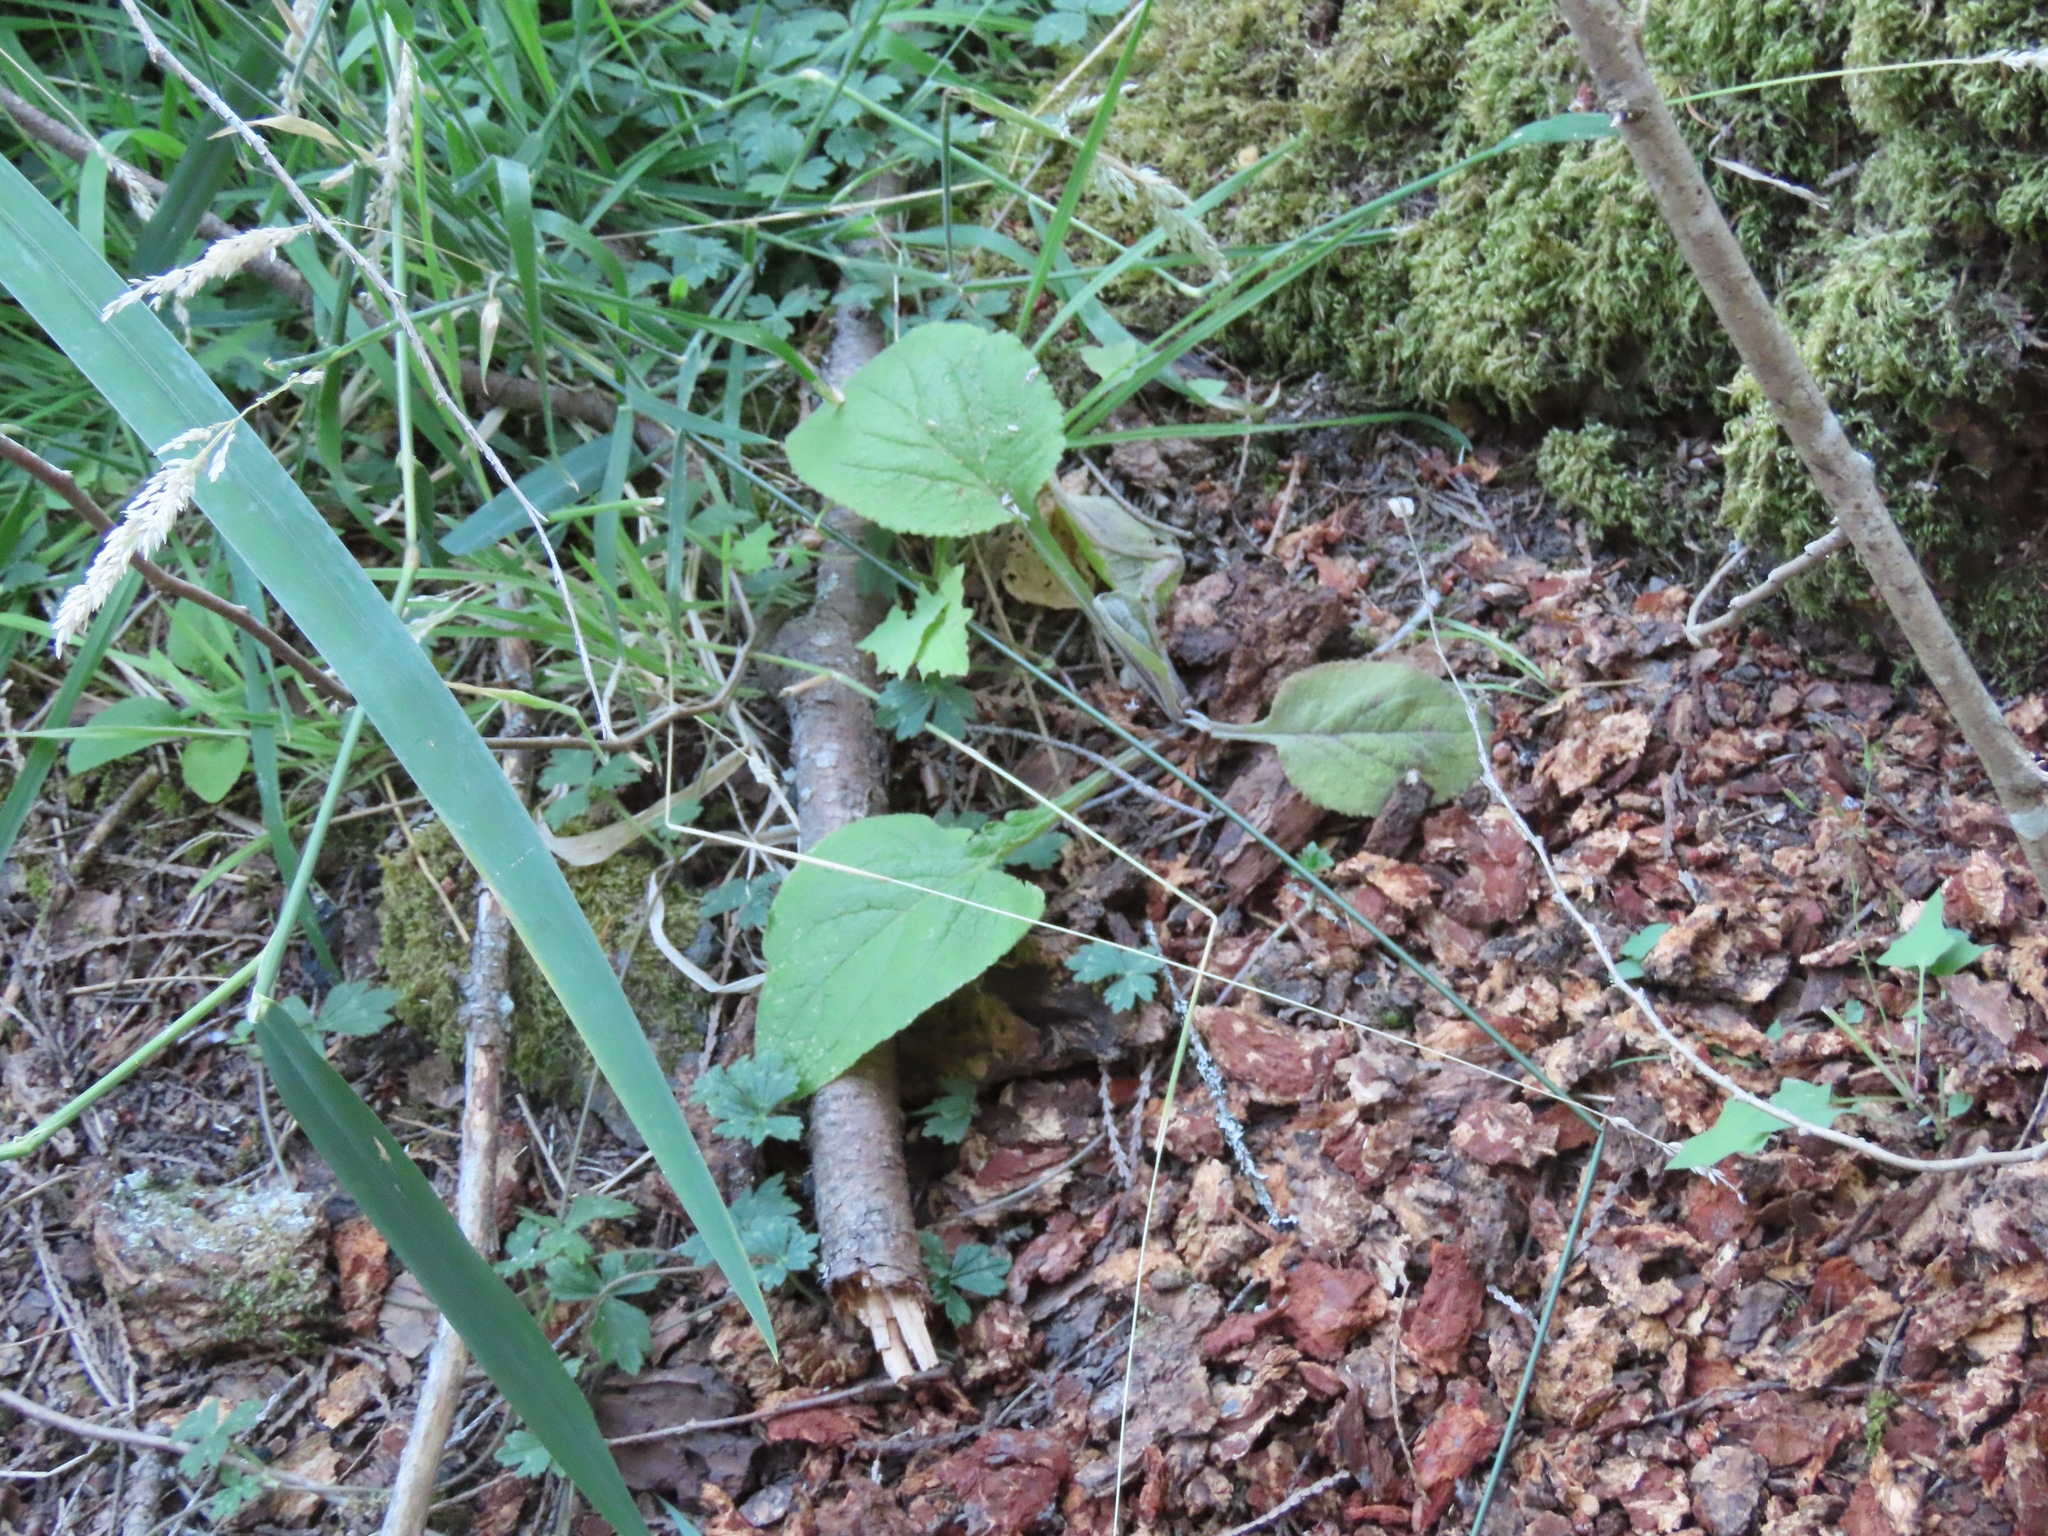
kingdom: Plantae
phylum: Tracheophyta
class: Magnoliopsida
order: Lamiales
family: Plantaginaceae
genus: Digitalis
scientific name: Digitalis purpurea
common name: Foxglove
